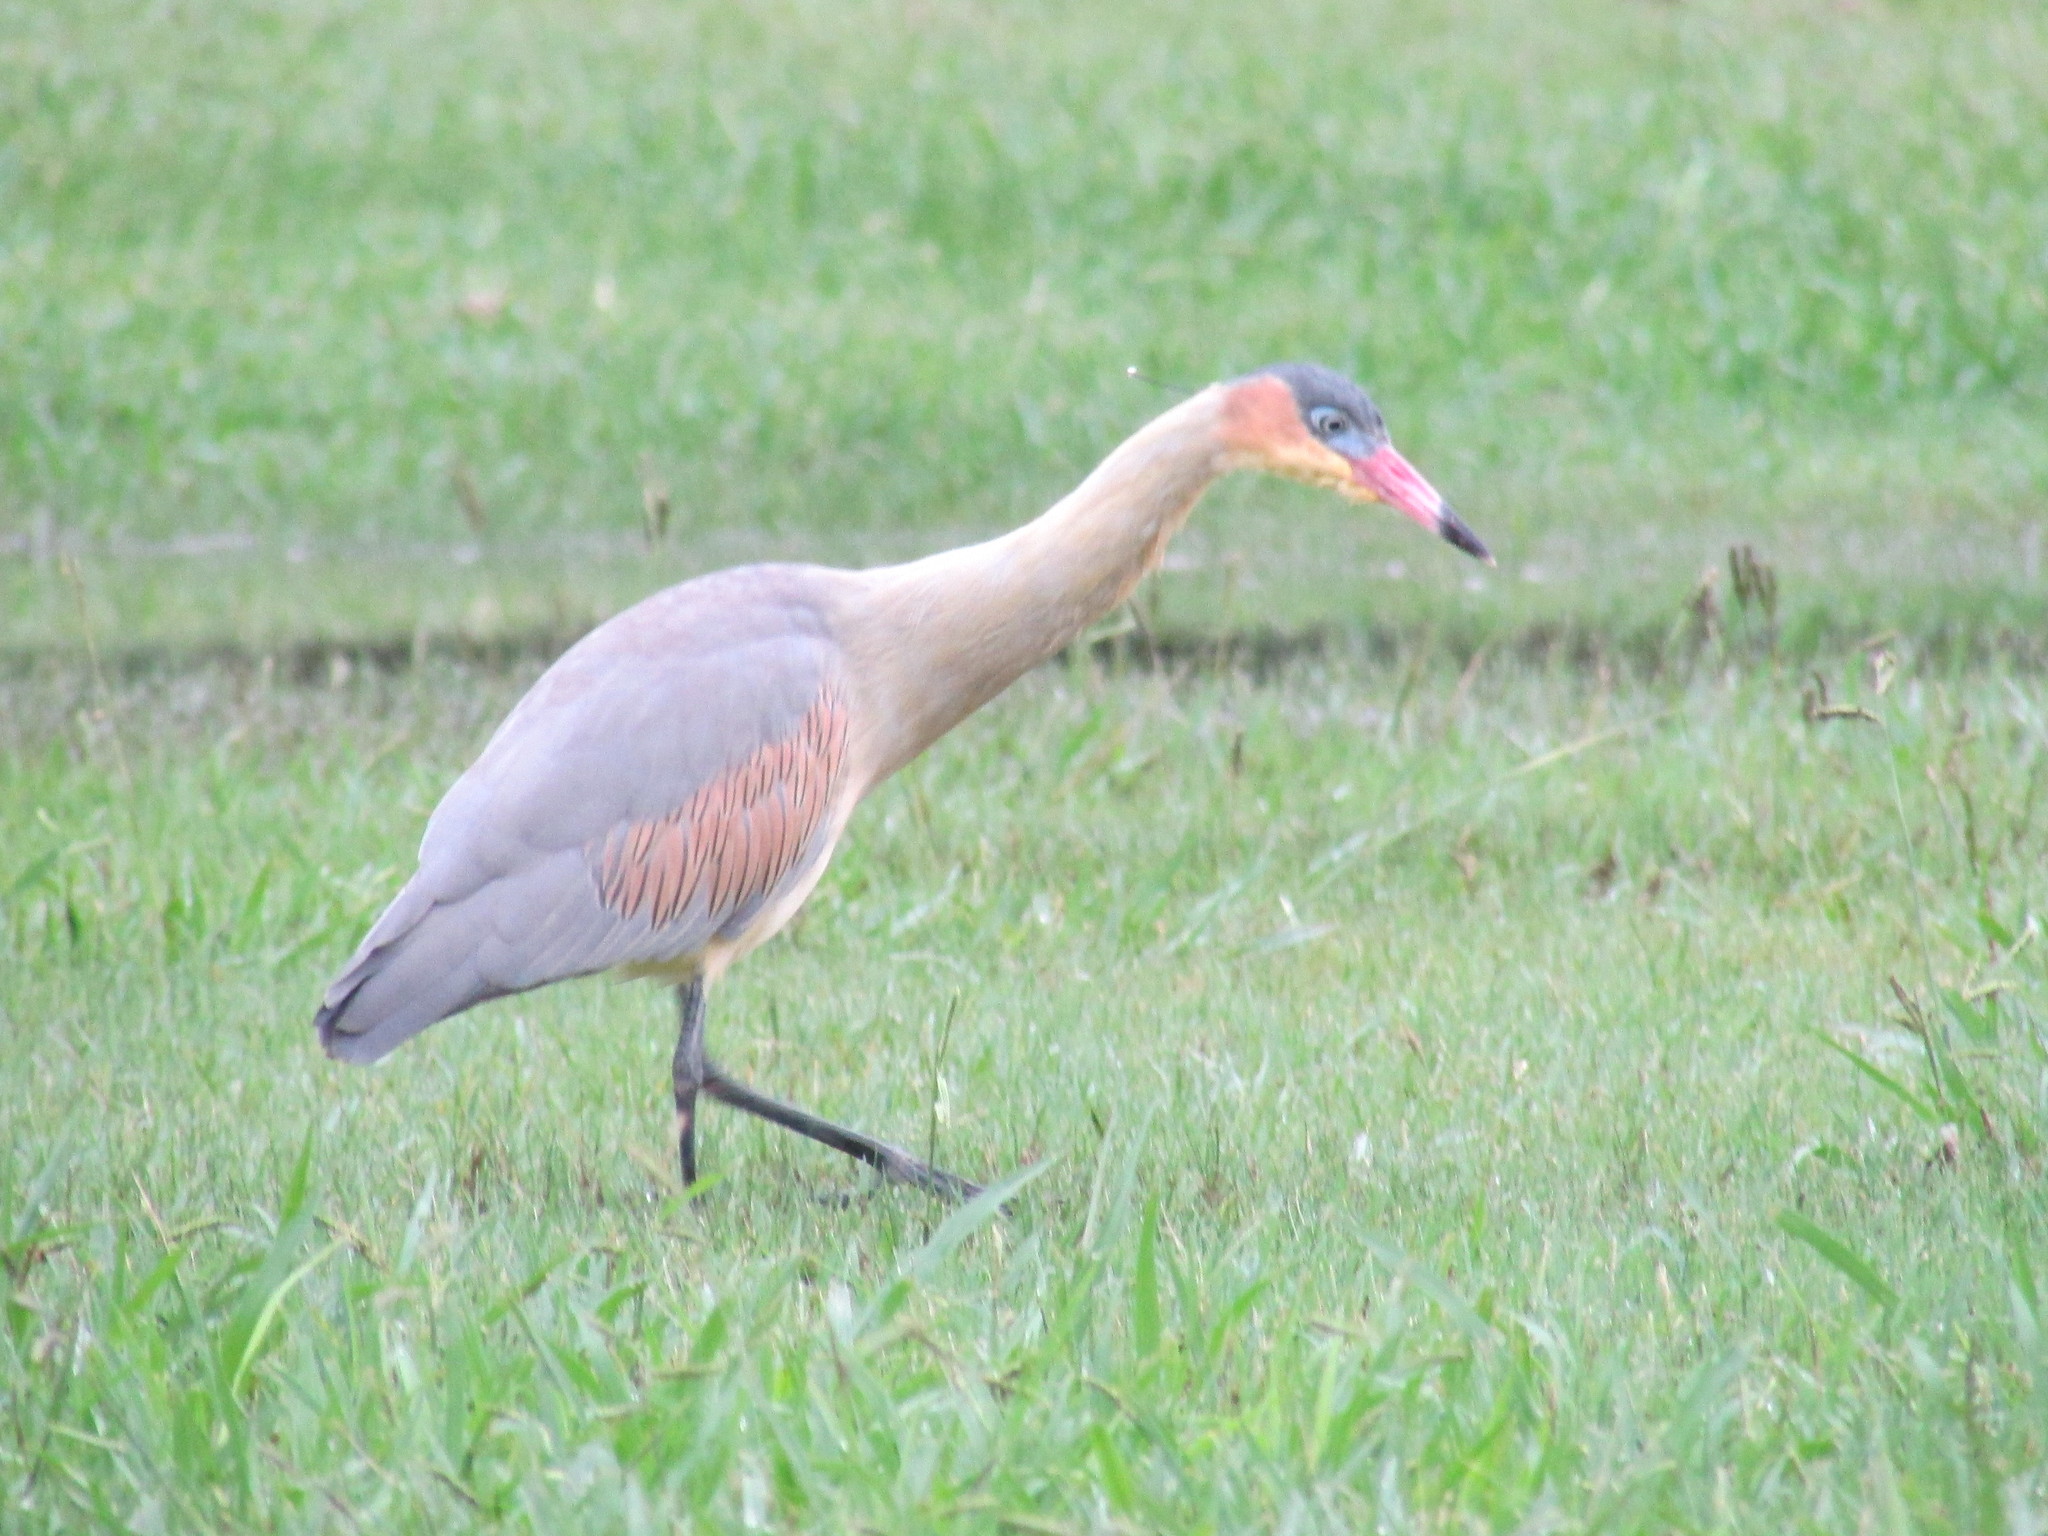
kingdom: Animalia
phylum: Chordata
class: Aves
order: Pelecaniformes
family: Ardeidae
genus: Syrigma
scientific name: Syrigma sibilatrix
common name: Whistling heron
